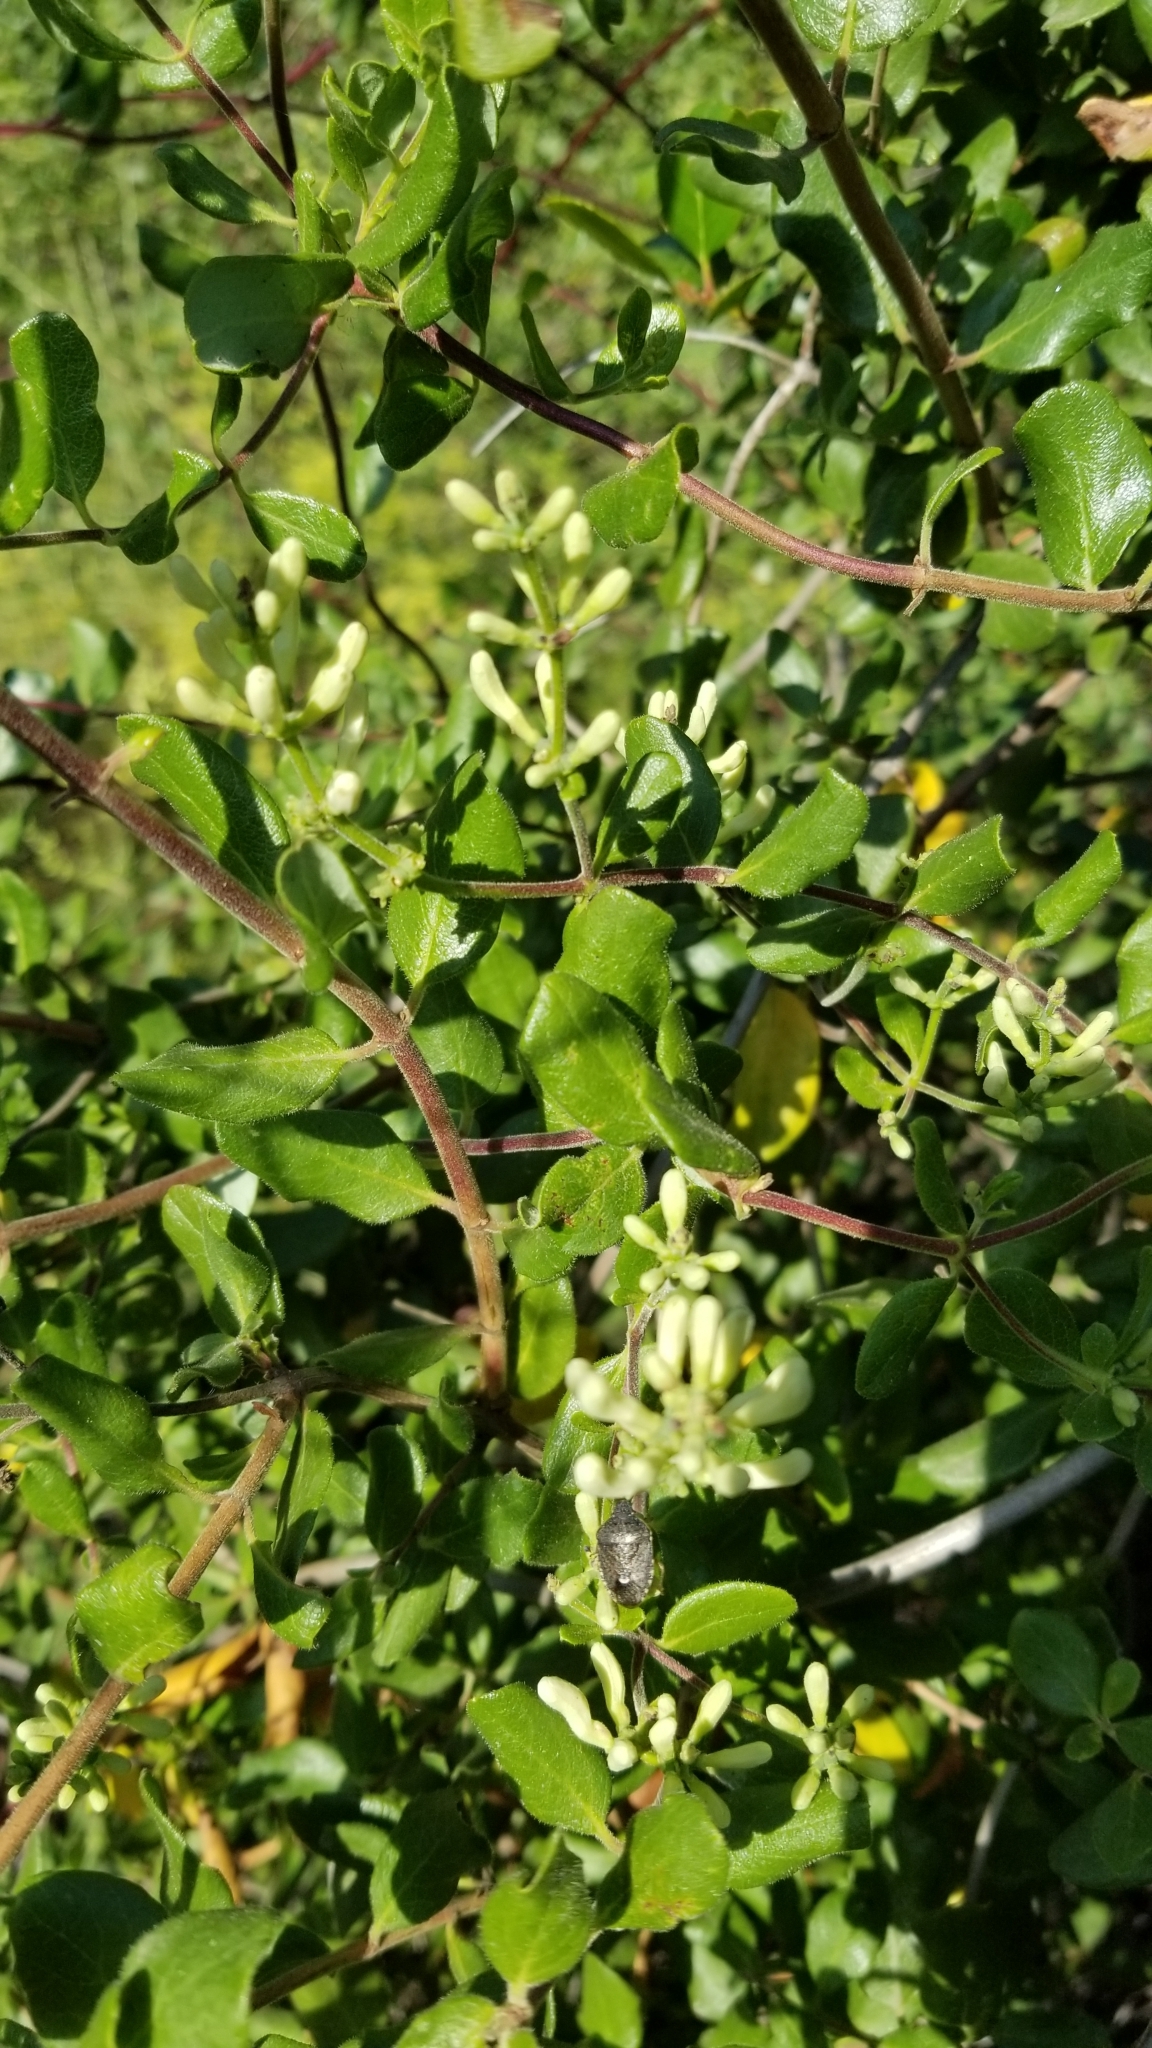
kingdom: Plantae
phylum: Tracheophyta
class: Magnoliopsida
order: Dipsacales
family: Caprifoliaceae
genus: Lonicera
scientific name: Lonicera subspicata
